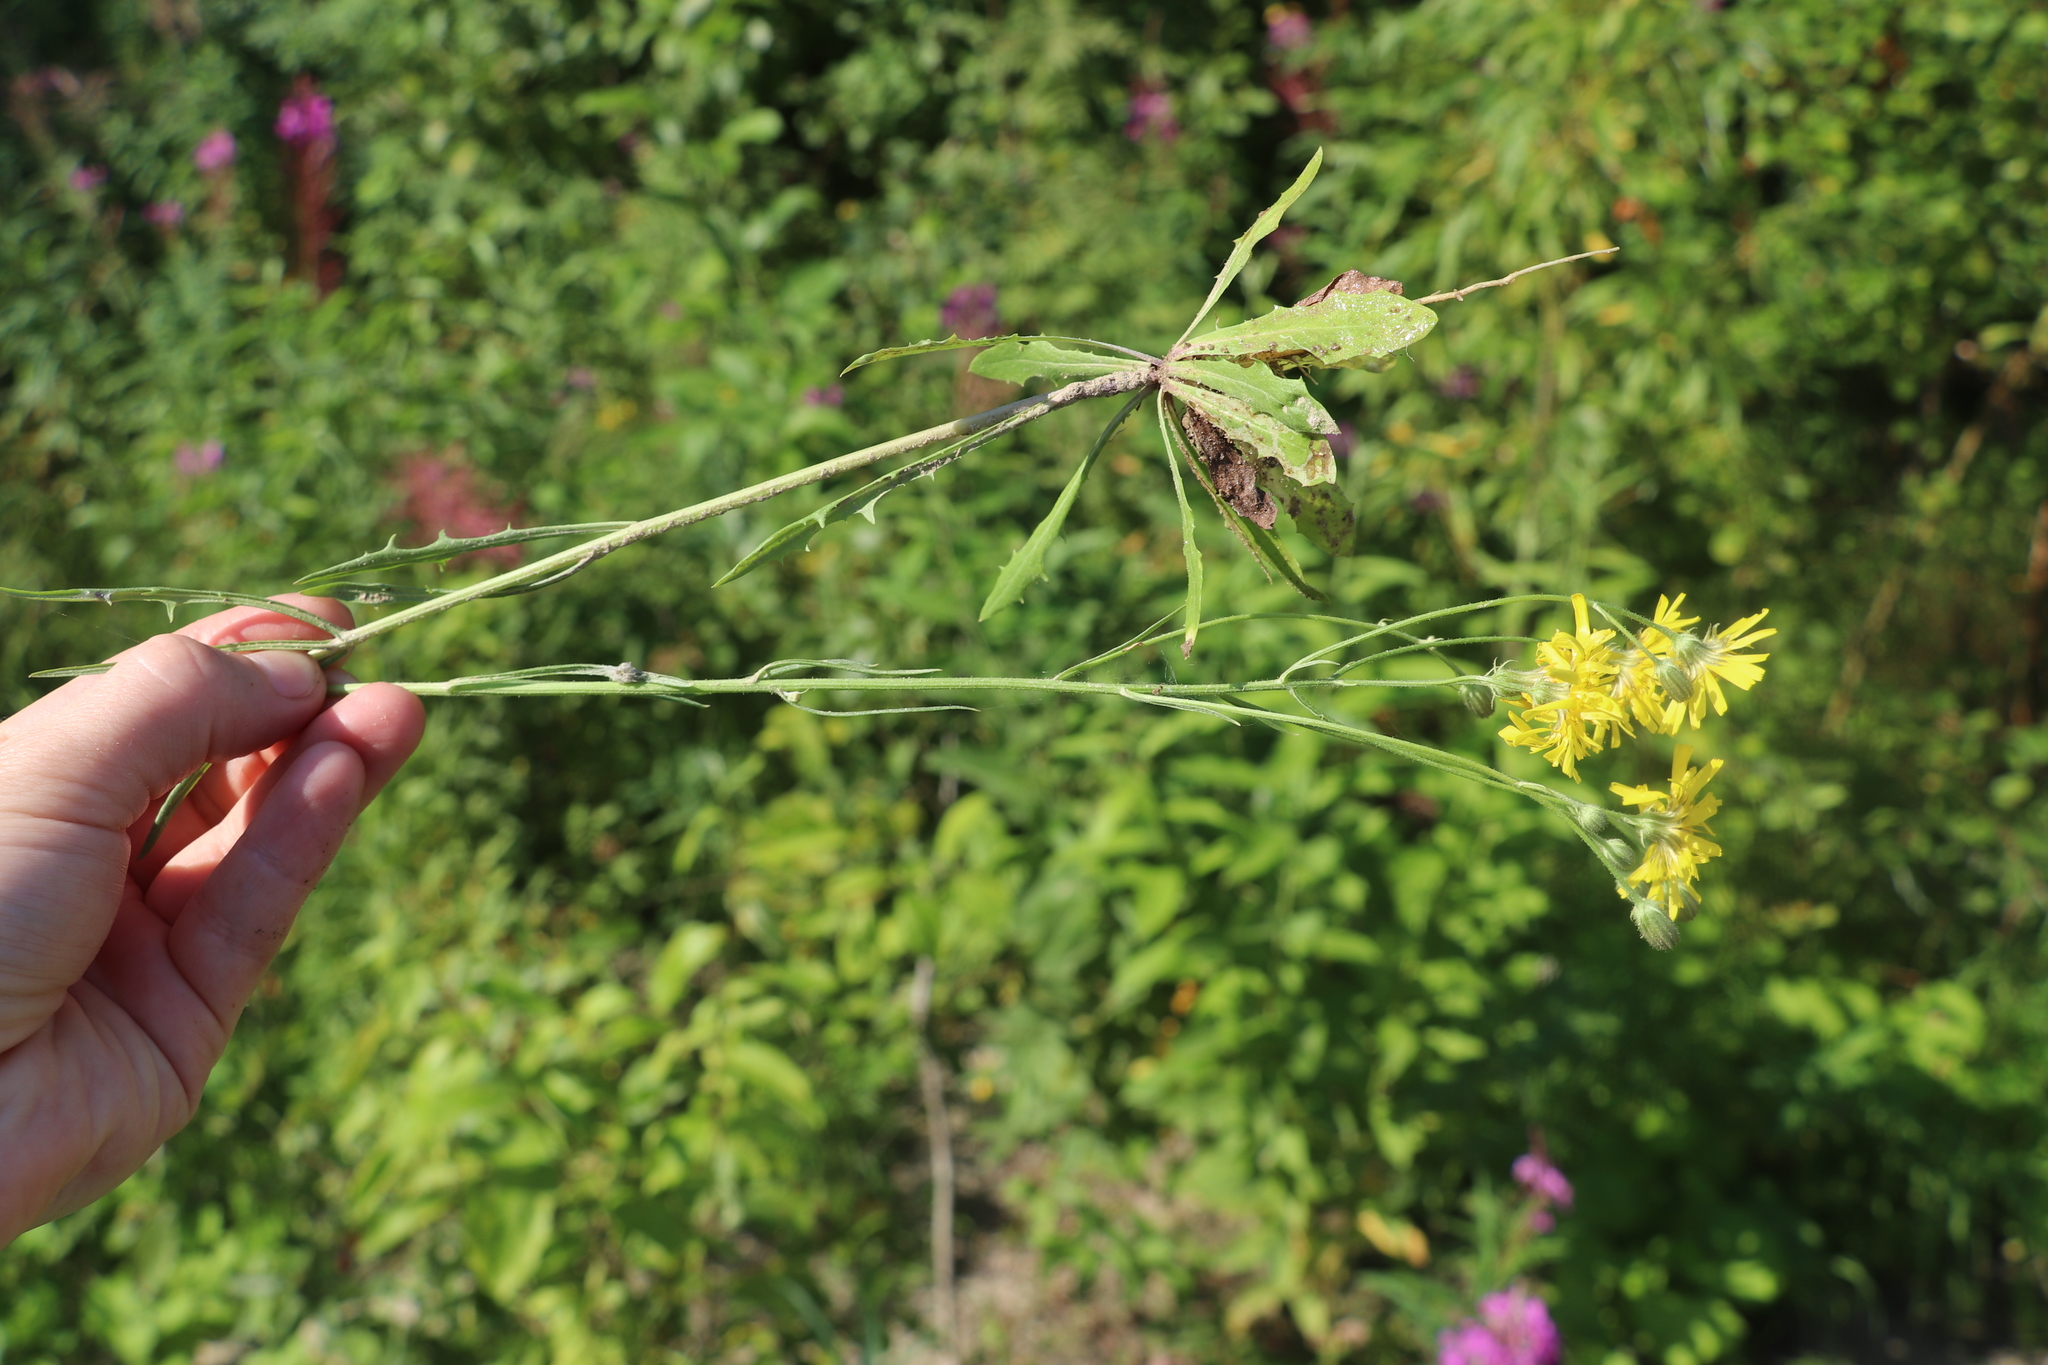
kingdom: Plantae
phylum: Tracheophyta
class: Magnoliopsida
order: Asterales
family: Asteraceae
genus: Crepis
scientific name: Crepis tectorum
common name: Narrow-leaved hawk's-beard
